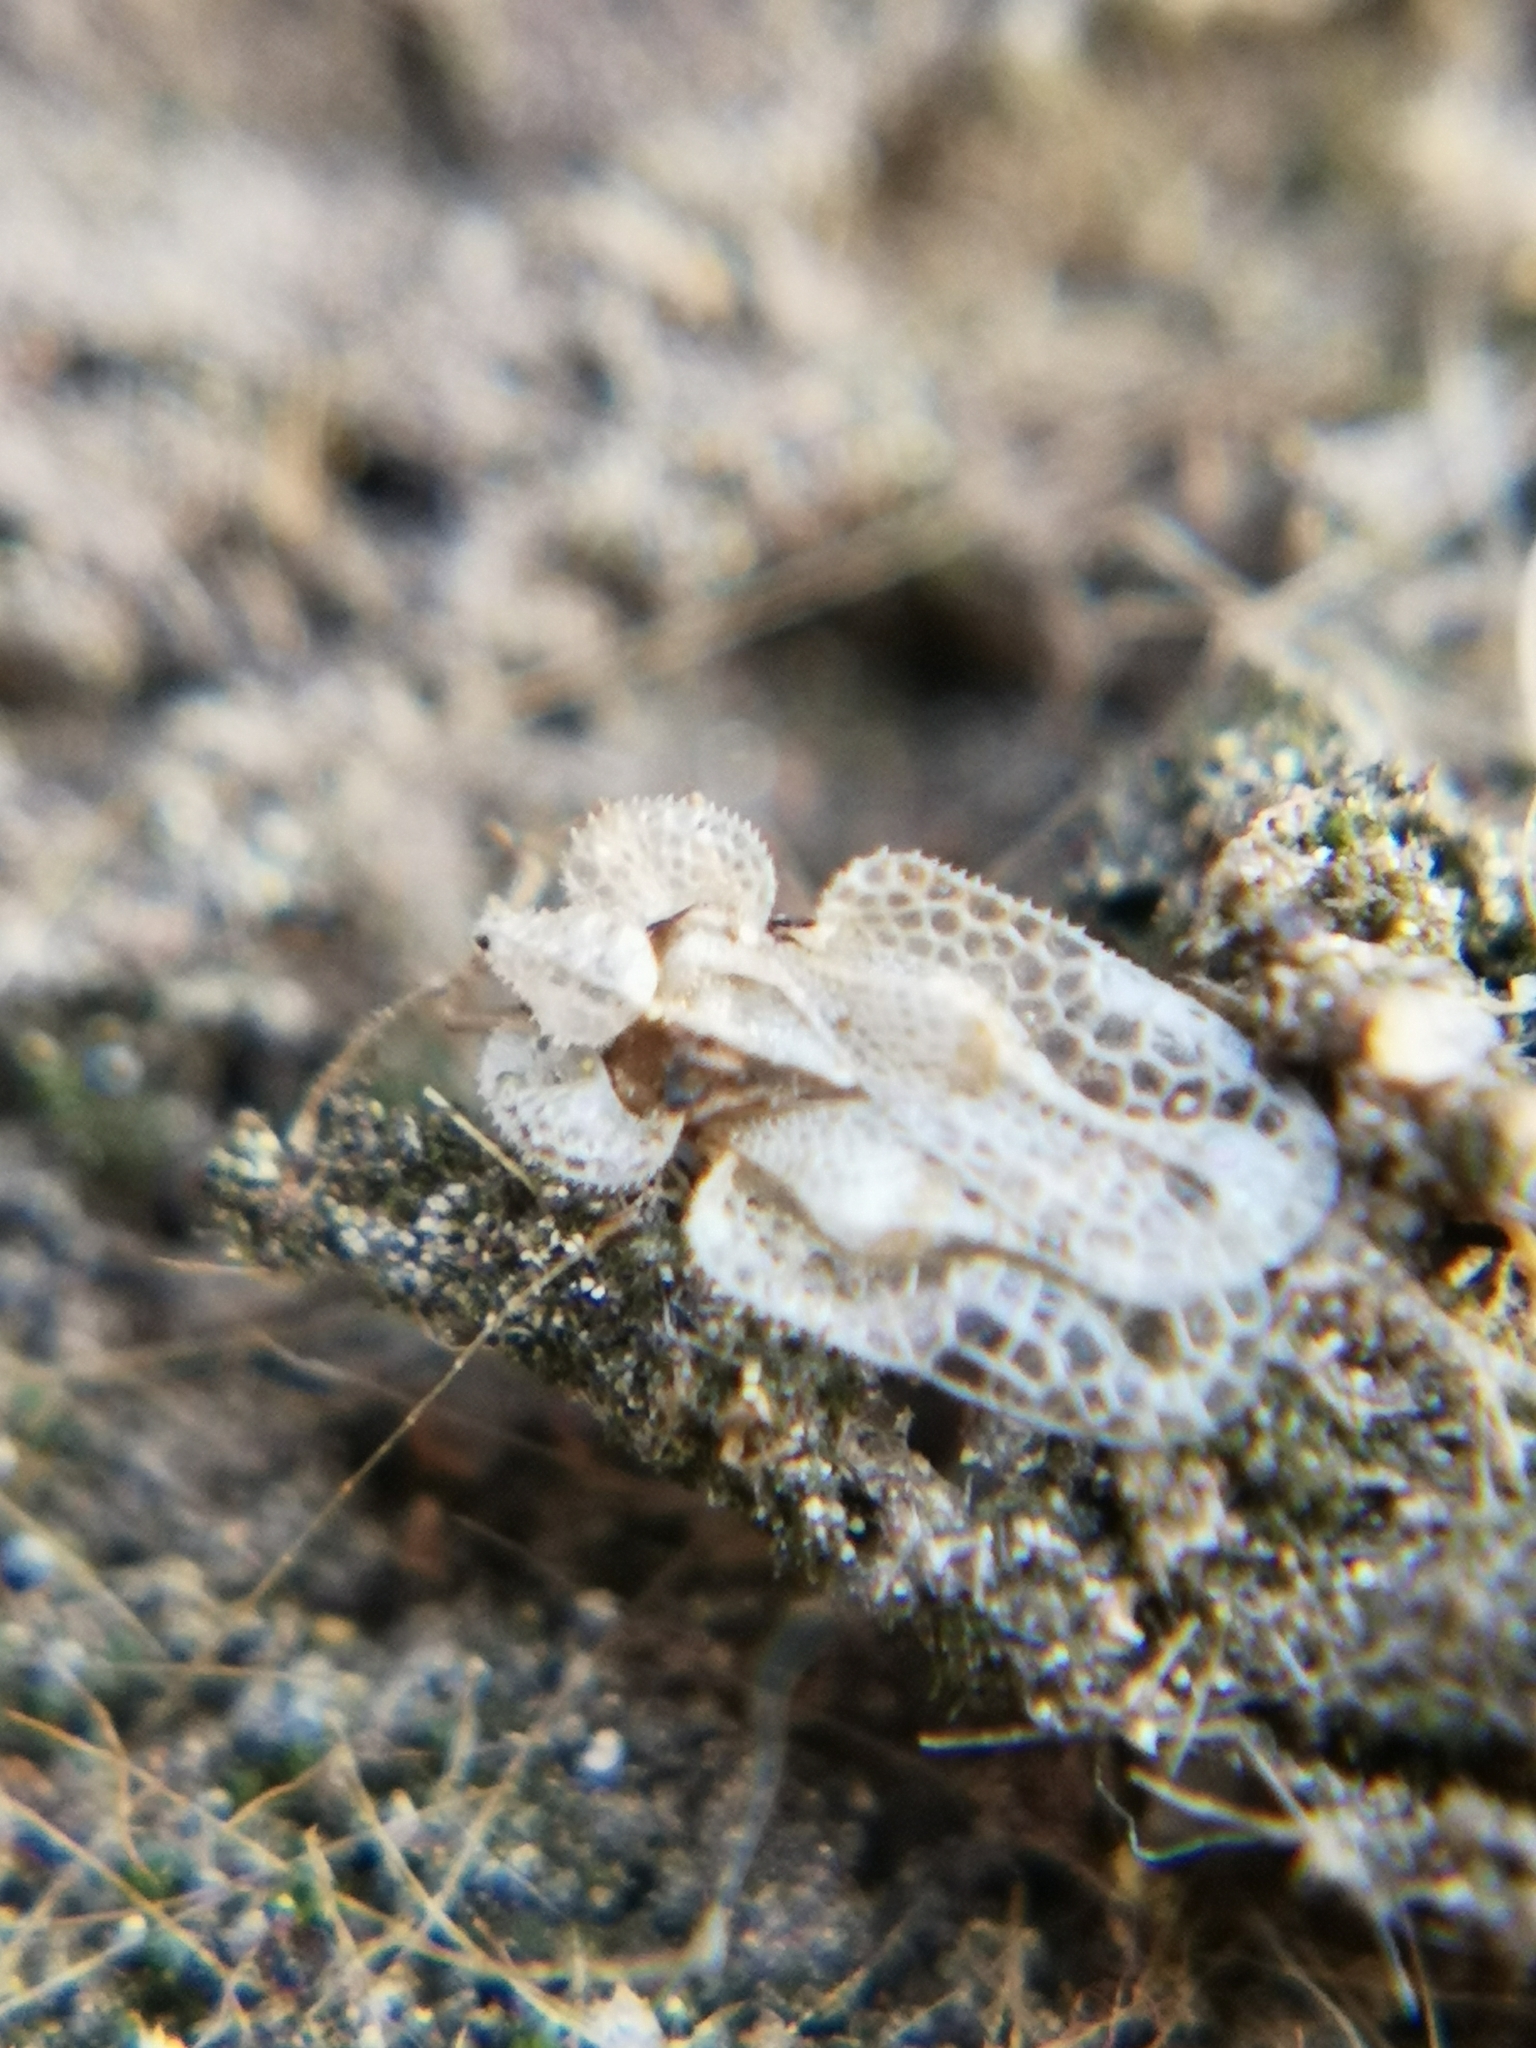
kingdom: Animalia
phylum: Arthropoda
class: Insecta
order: Hemiptera
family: Tingidae
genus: Corythucha
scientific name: Corythucha ciliata
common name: Sycamore lace bug
